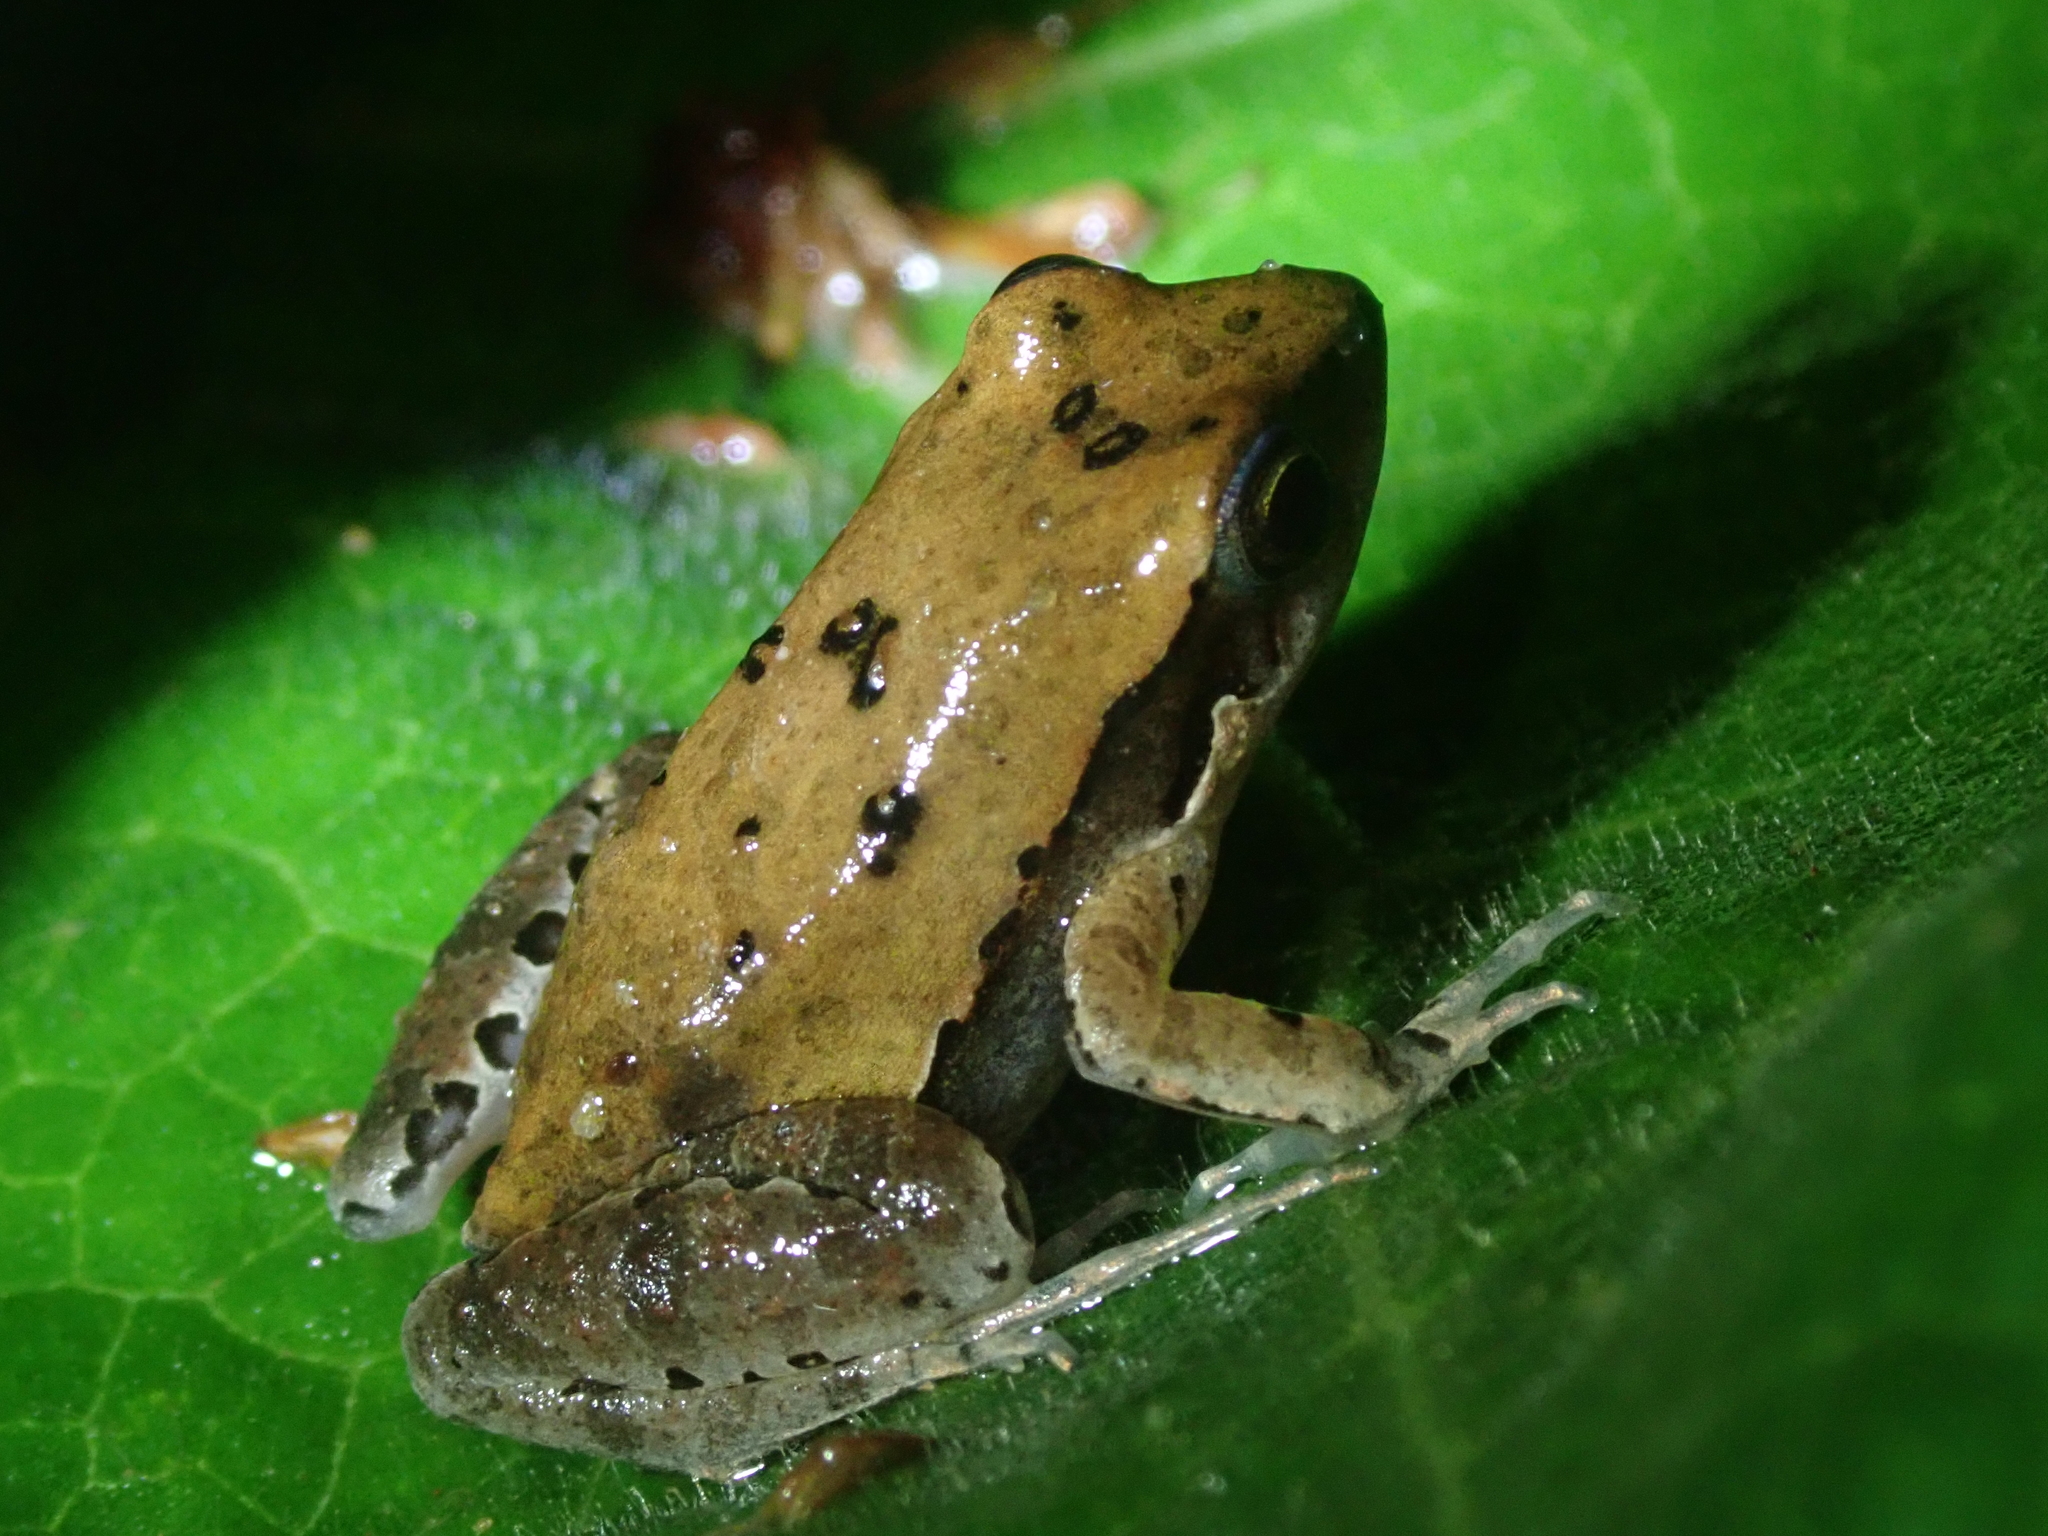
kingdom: Animalia
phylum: Chordata
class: Amphibia
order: Anura
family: Leptodactylidae
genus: Physalaemus
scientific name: Physalaemus albonotatus
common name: Menwig frog
